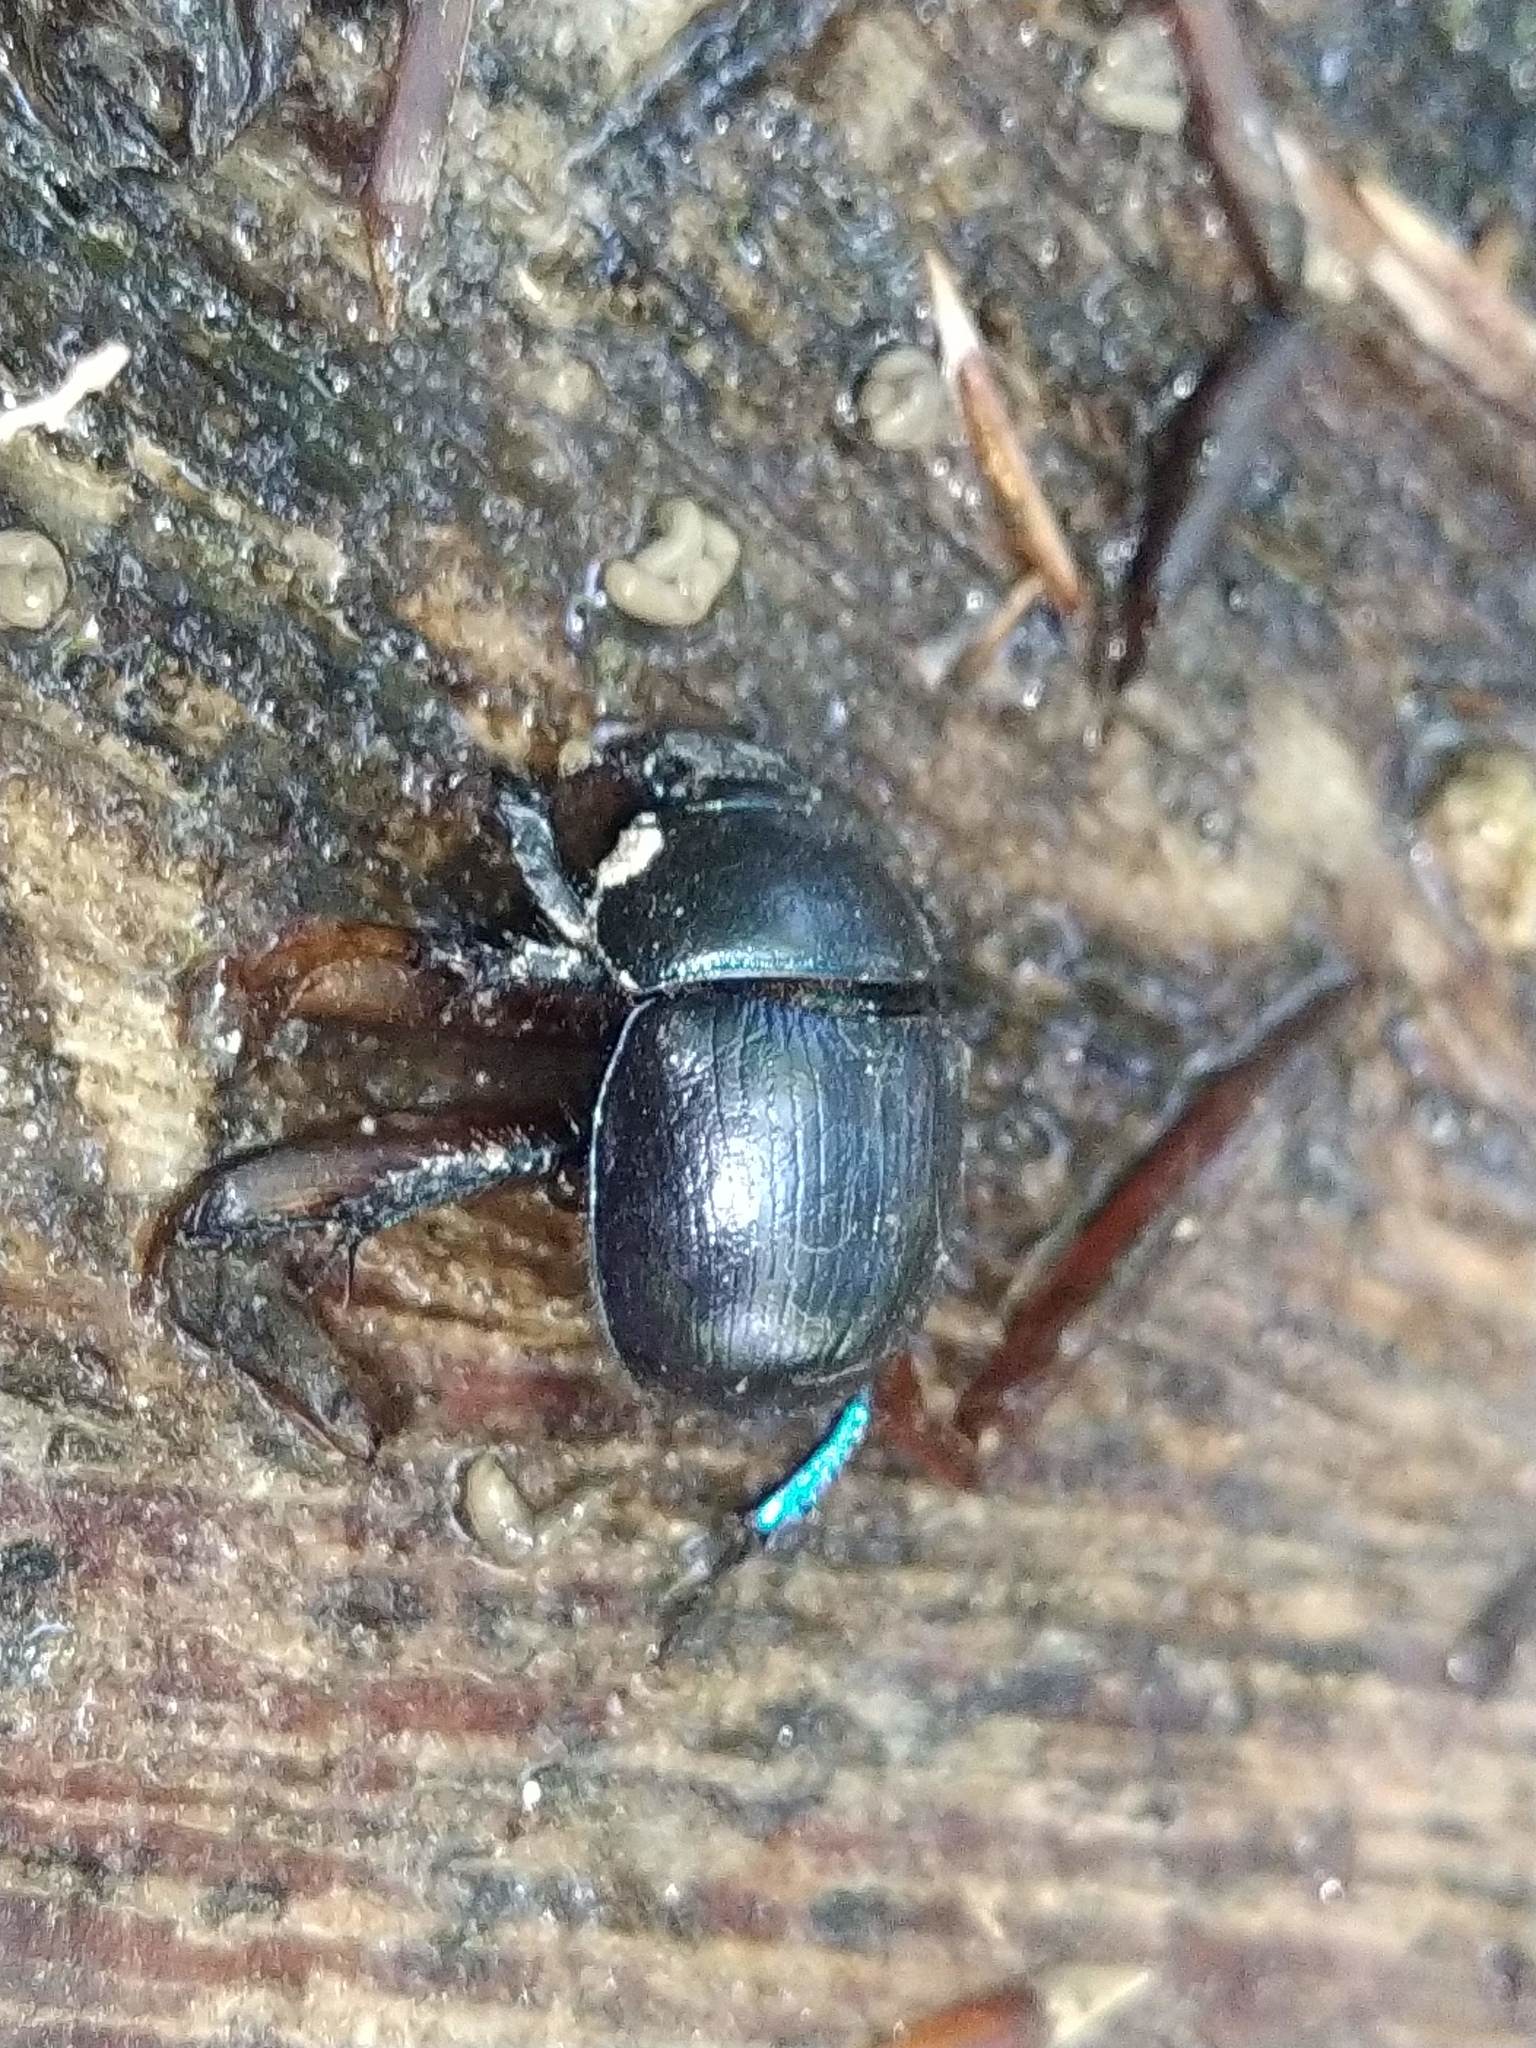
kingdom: Animalia
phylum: Arthropoda
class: Insecta
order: Coleoptera
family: Geotrupidae
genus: Anoplotrupes
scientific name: Anoplotrupes stercorosus
